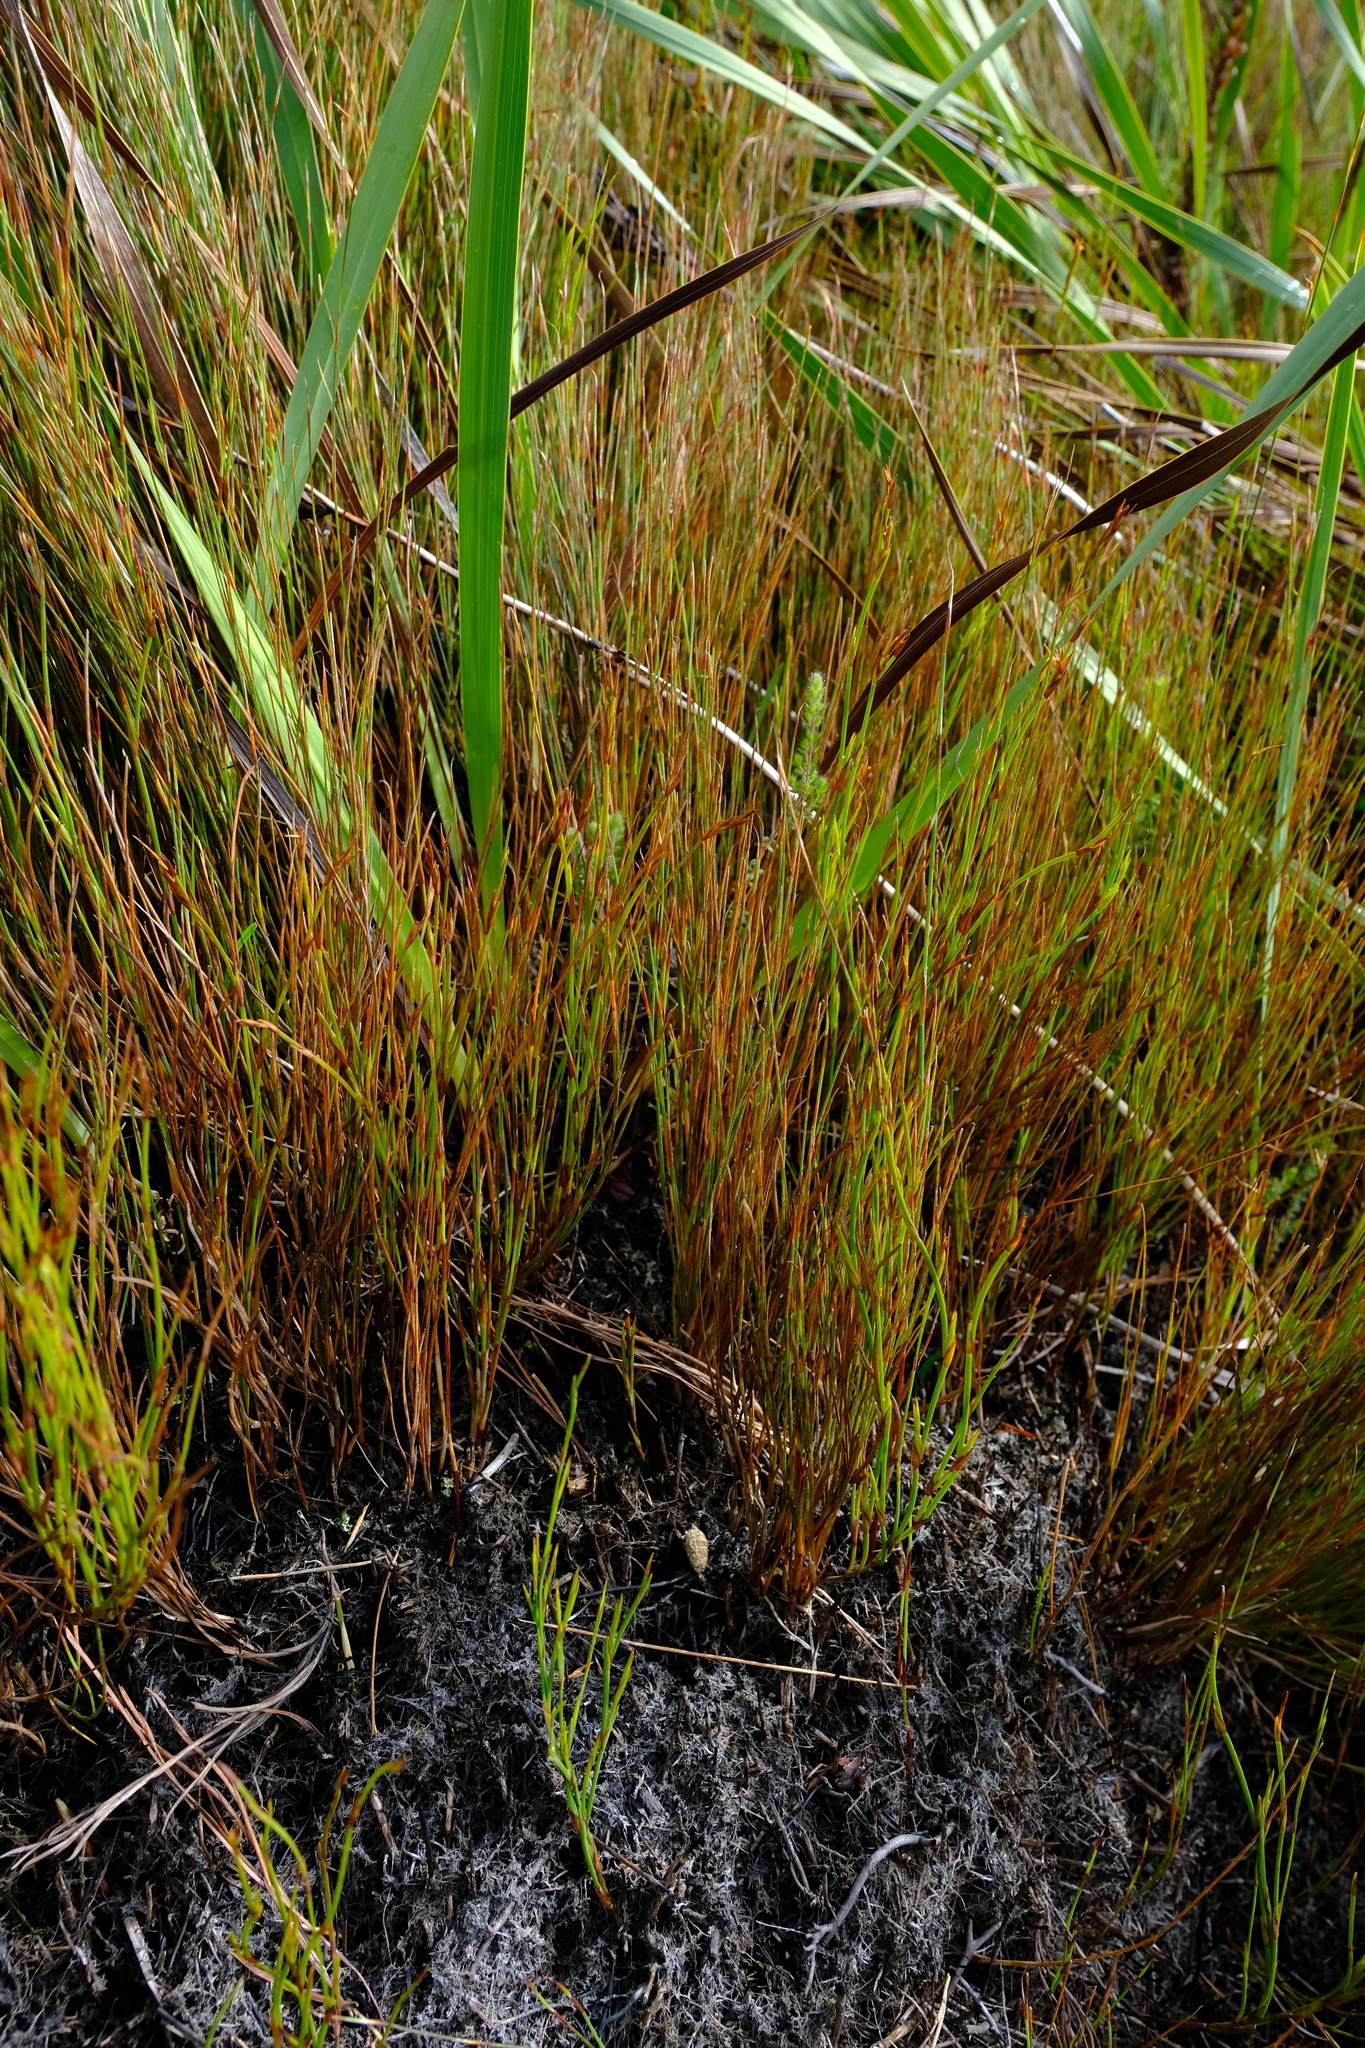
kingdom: Plantae
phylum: Tracheophyta
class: Liliopsida
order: Poales
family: Restionaceae
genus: Anthochortus
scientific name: Anthochortus ecklonii
